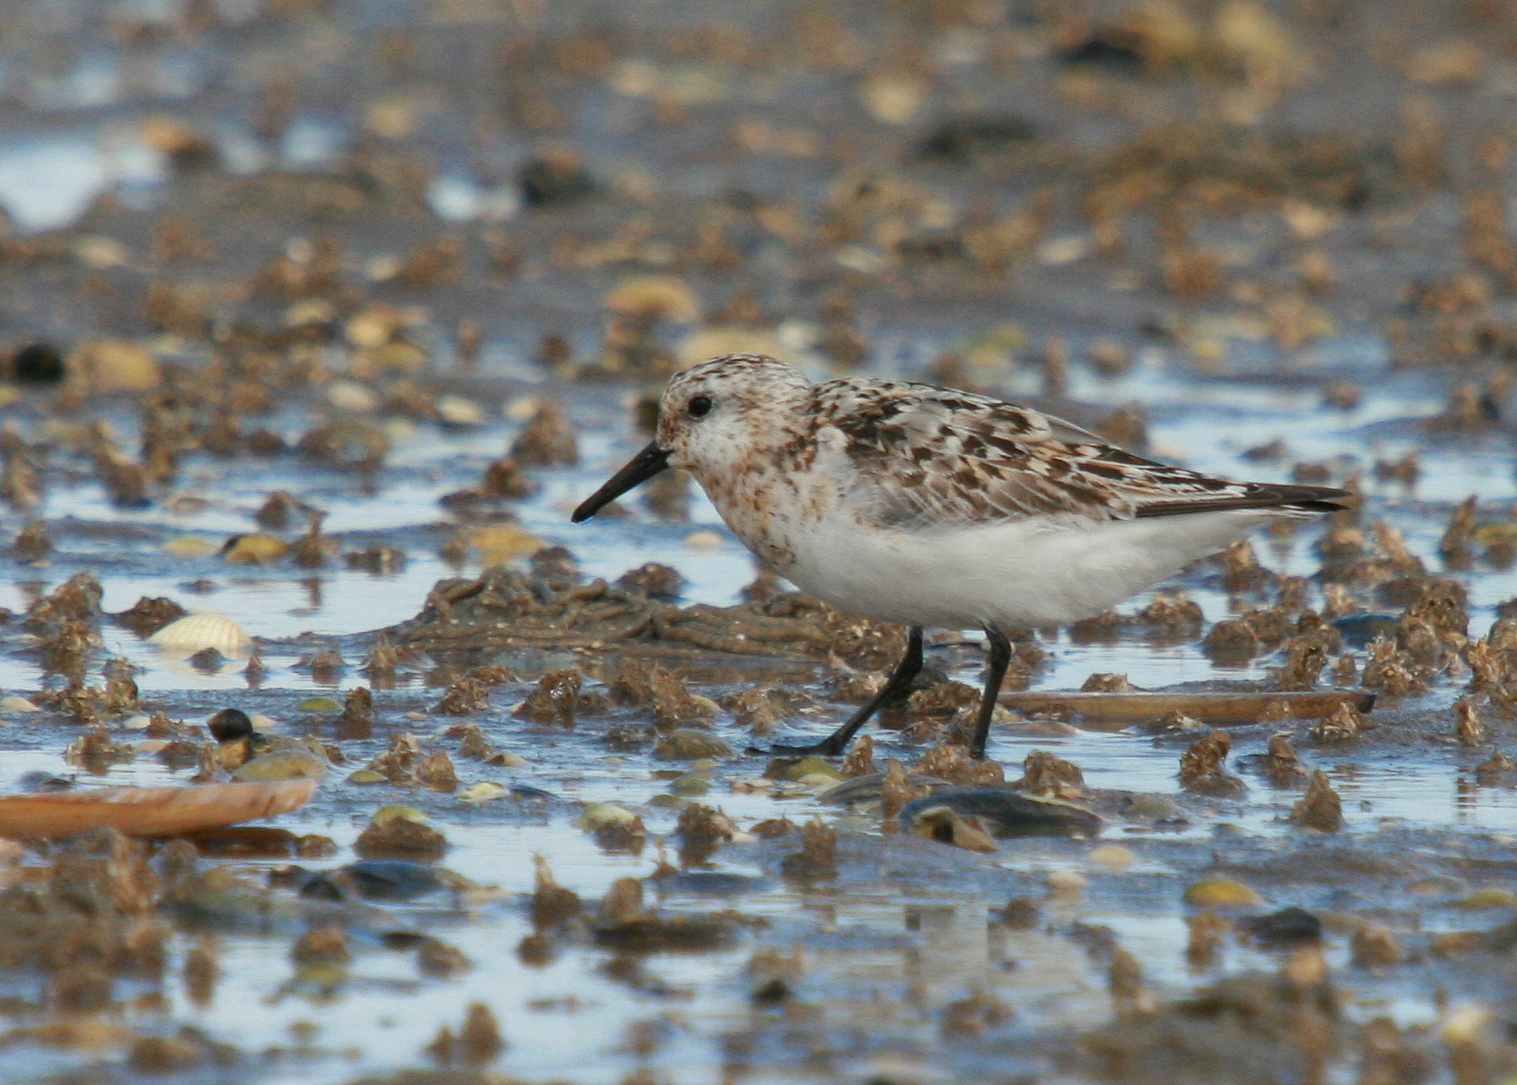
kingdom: Animalia
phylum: Chordata
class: Aves
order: Charadriiformes
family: Scolopacidae
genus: Calidris
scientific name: Calidris alba
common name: Sanderling
